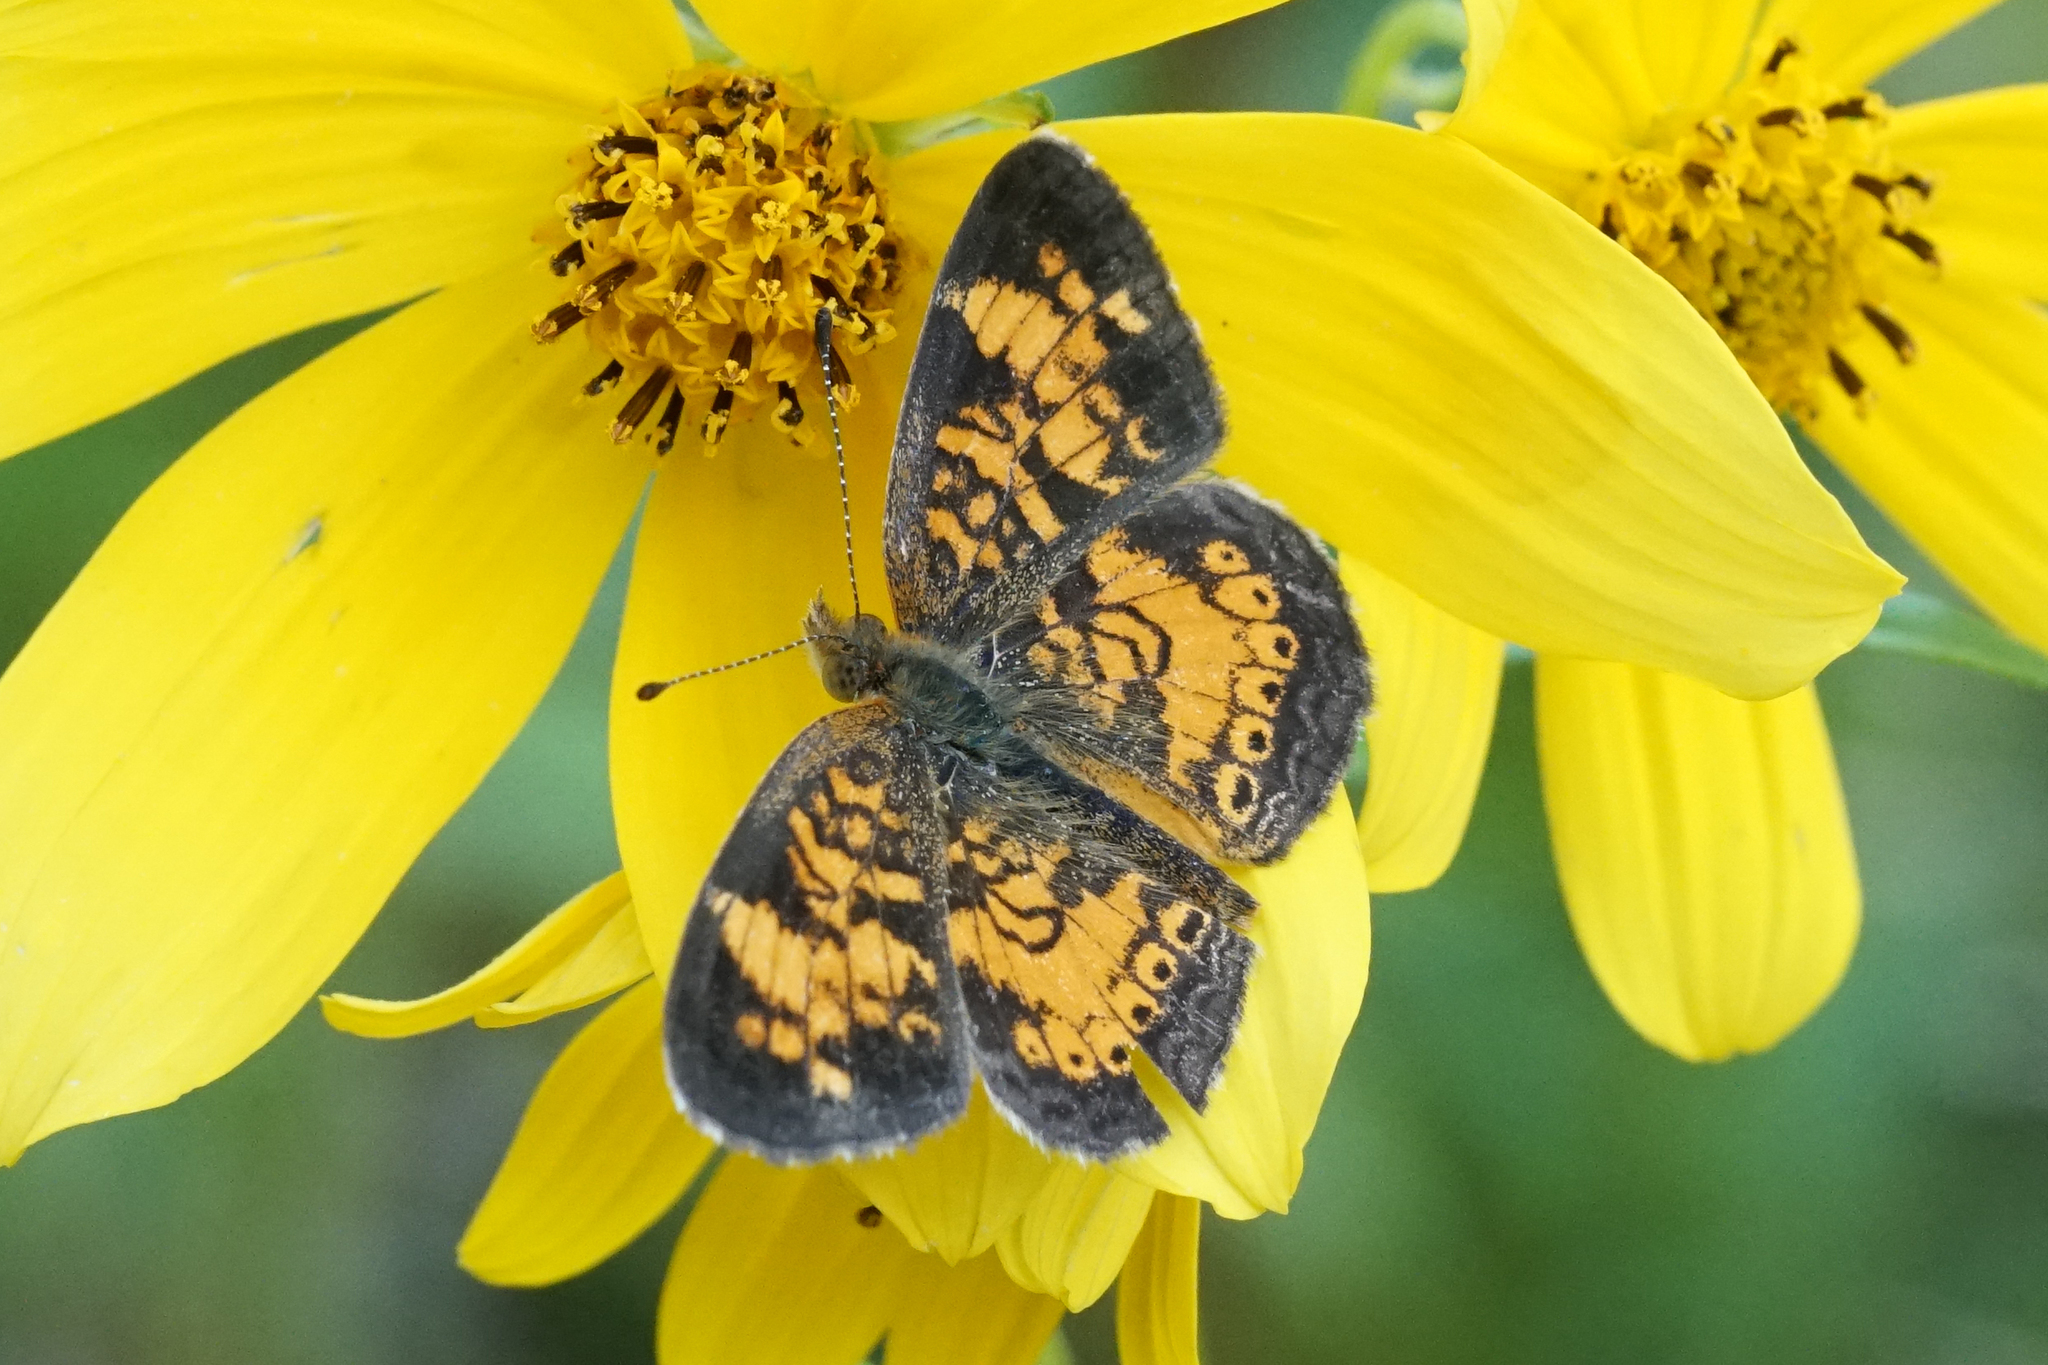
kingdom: Animalia
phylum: Arthropoda
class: Insecta
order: Lepidoptera
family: Nymphalidae
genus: Phyciodes
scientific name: Phyciodes tharos
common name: Pearl crescent
